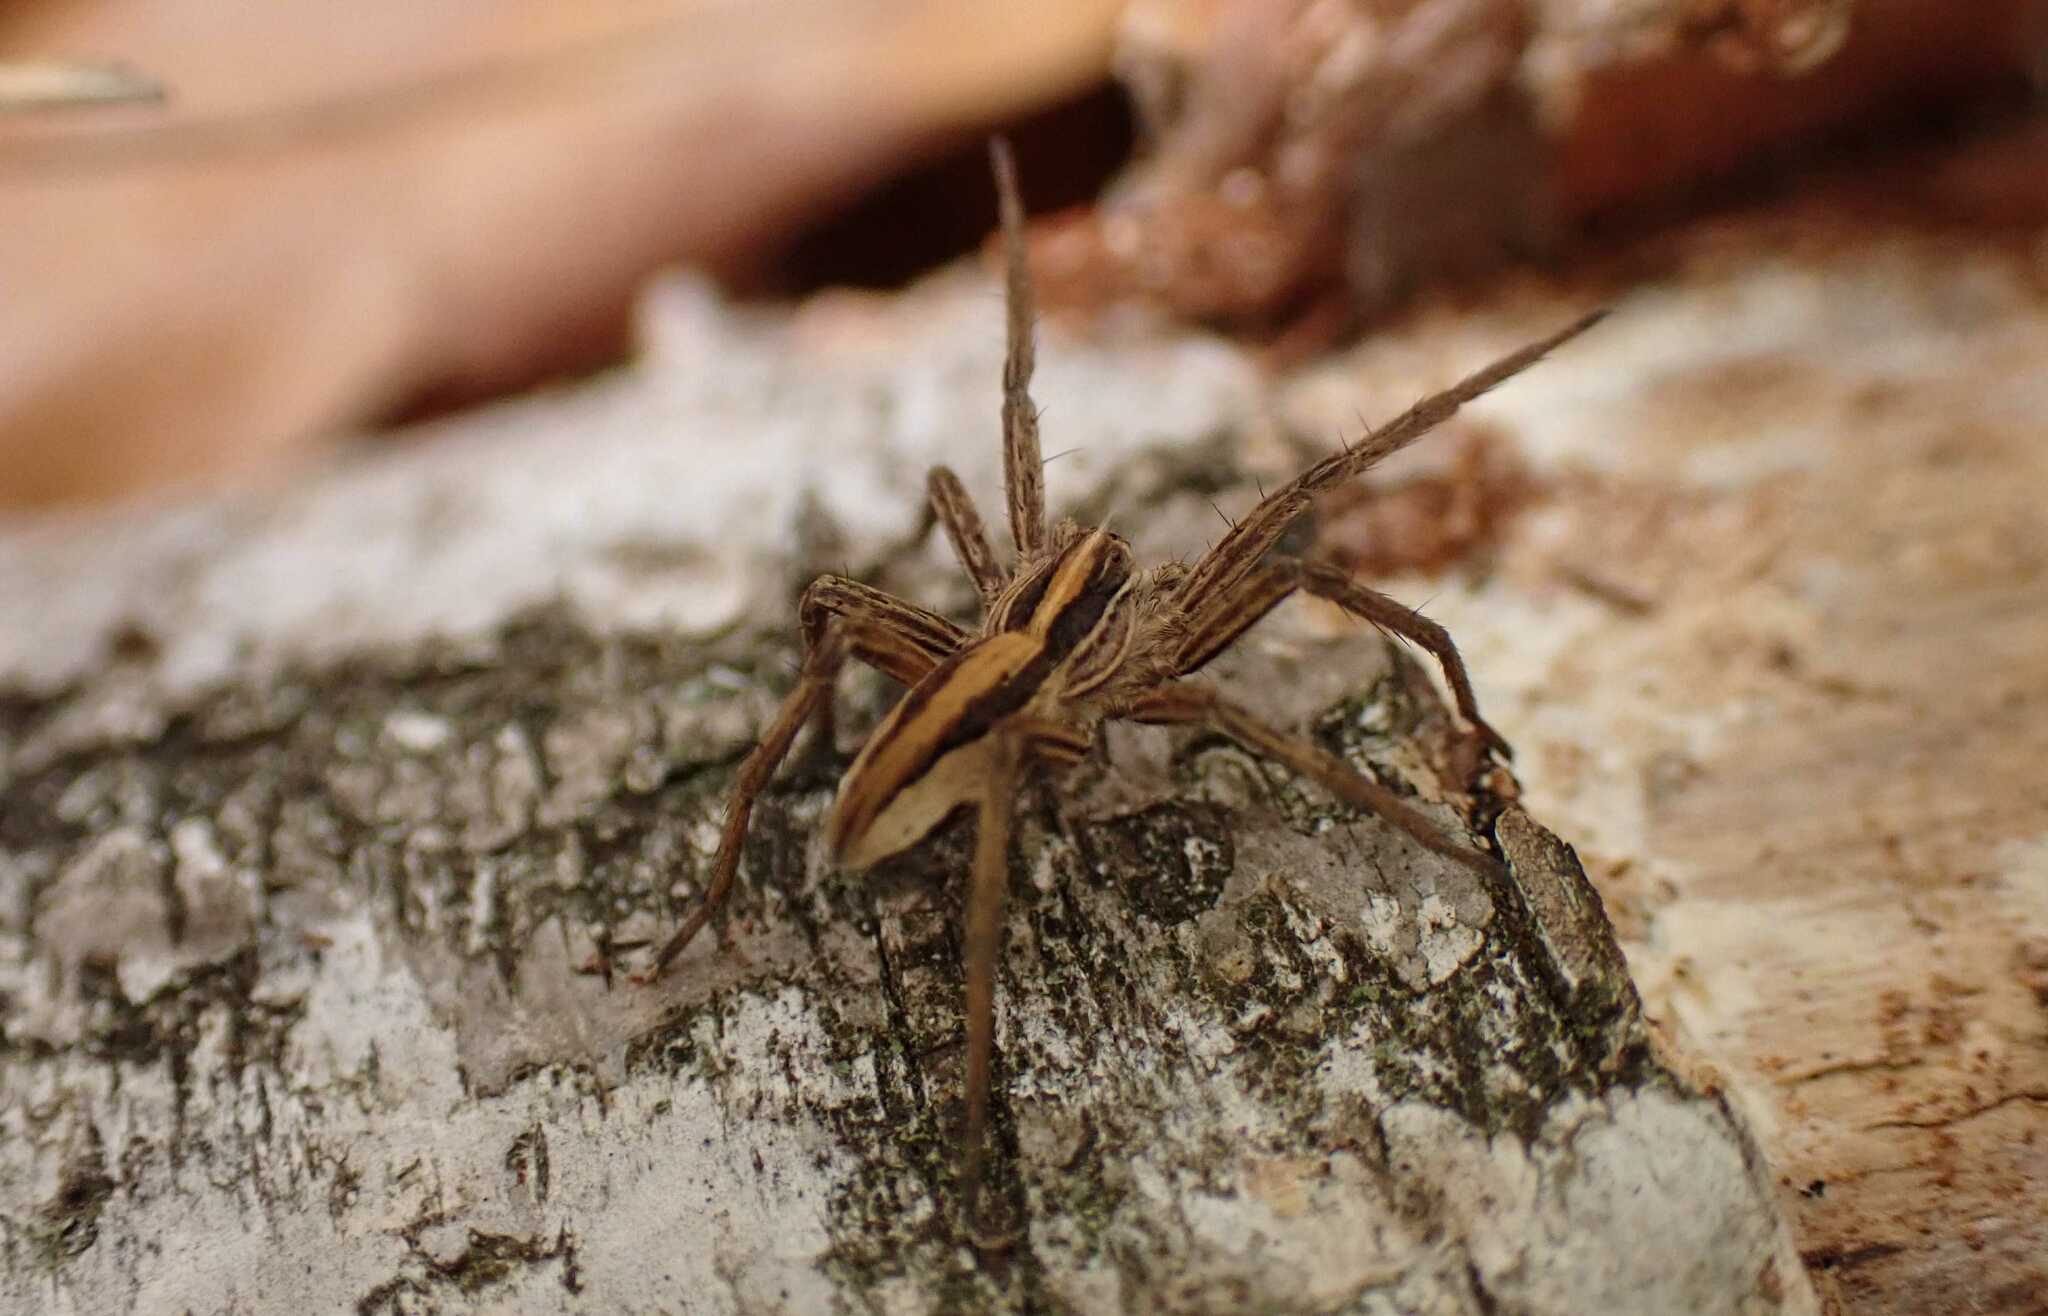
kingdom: Animalia
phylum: Arthropoda
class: Arachnida
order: Araneae
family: Pisauridae
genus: Pisaura
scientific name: Pisaura mirabilis
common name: Tent spider
